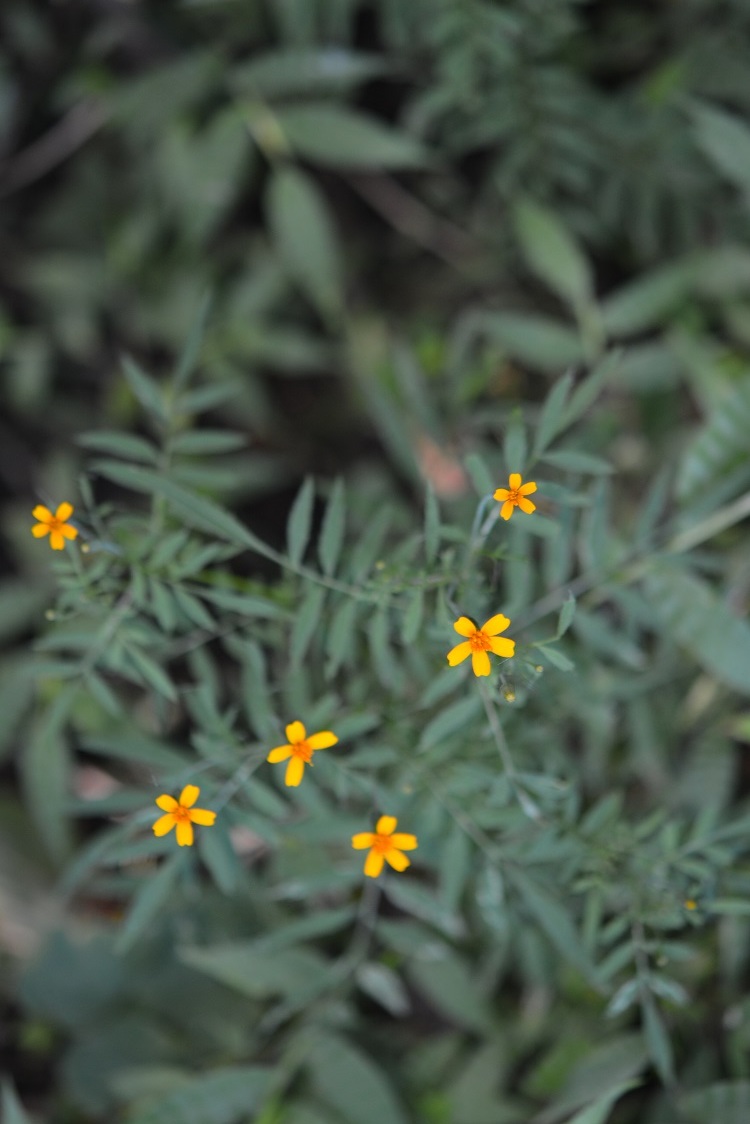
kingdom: Plantae
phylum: Tracheophyta
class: Magnoliopsida
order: Asterales
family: Asteraceae
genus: Tagetes
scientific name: Tagetes tenuifolia
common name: Signet marigold
